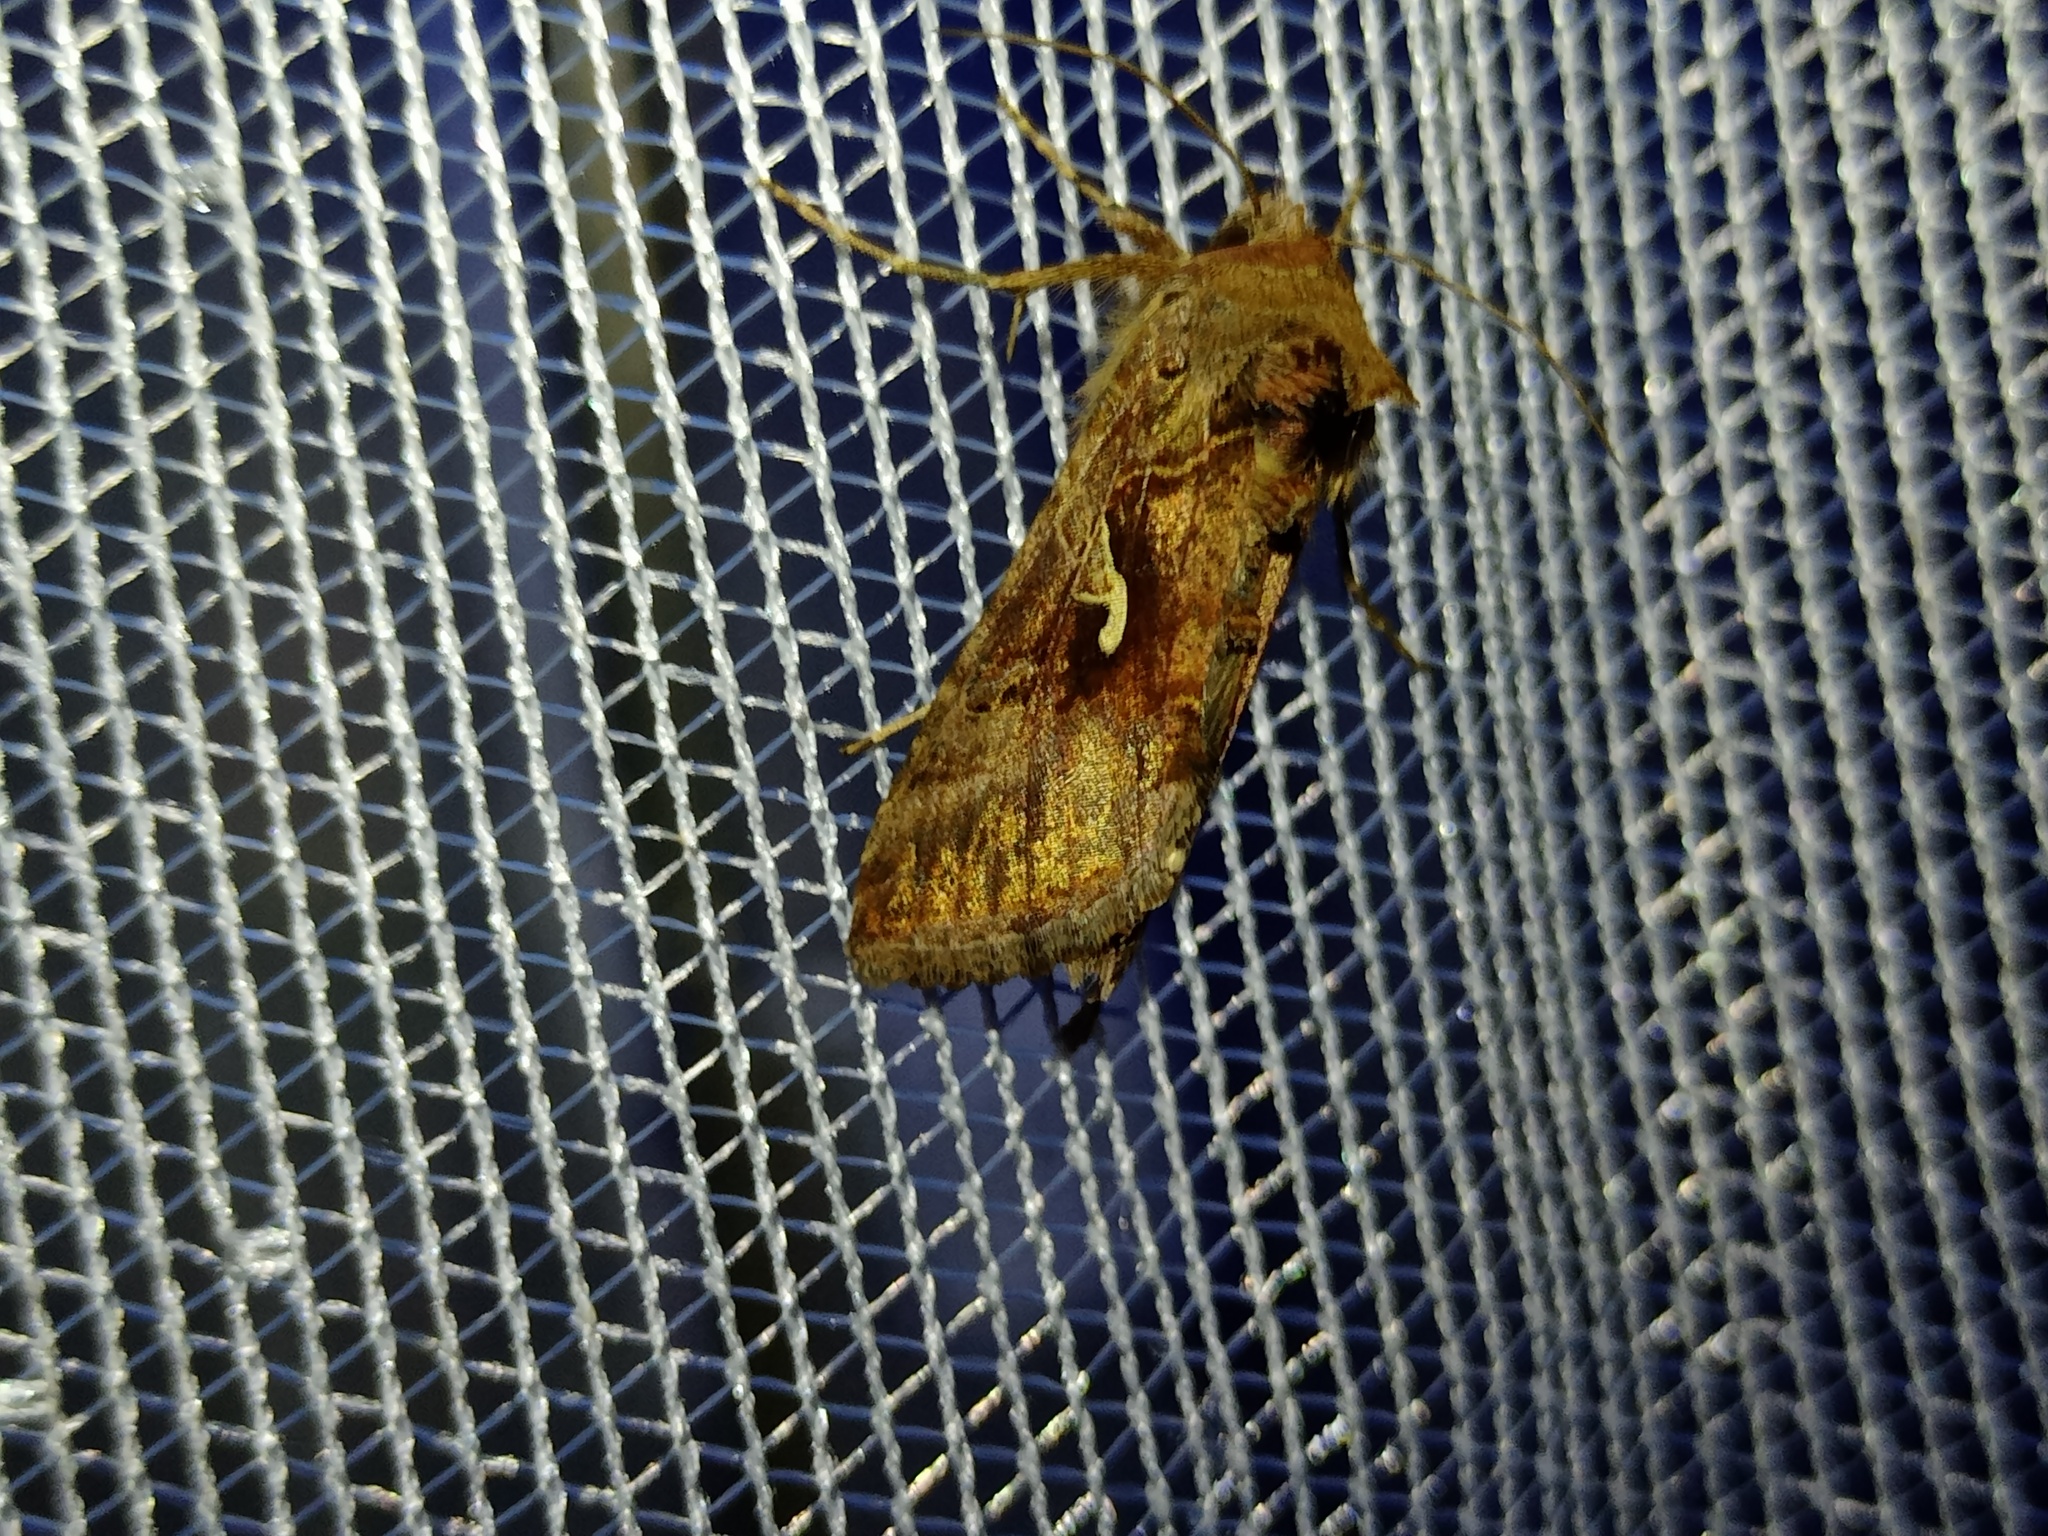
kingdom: Animalia
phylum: Arthropoda
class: Insecta
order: Lepidoptera
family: Noctuidae
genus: Autographa
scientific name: Autographa gamma
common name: Silver y
